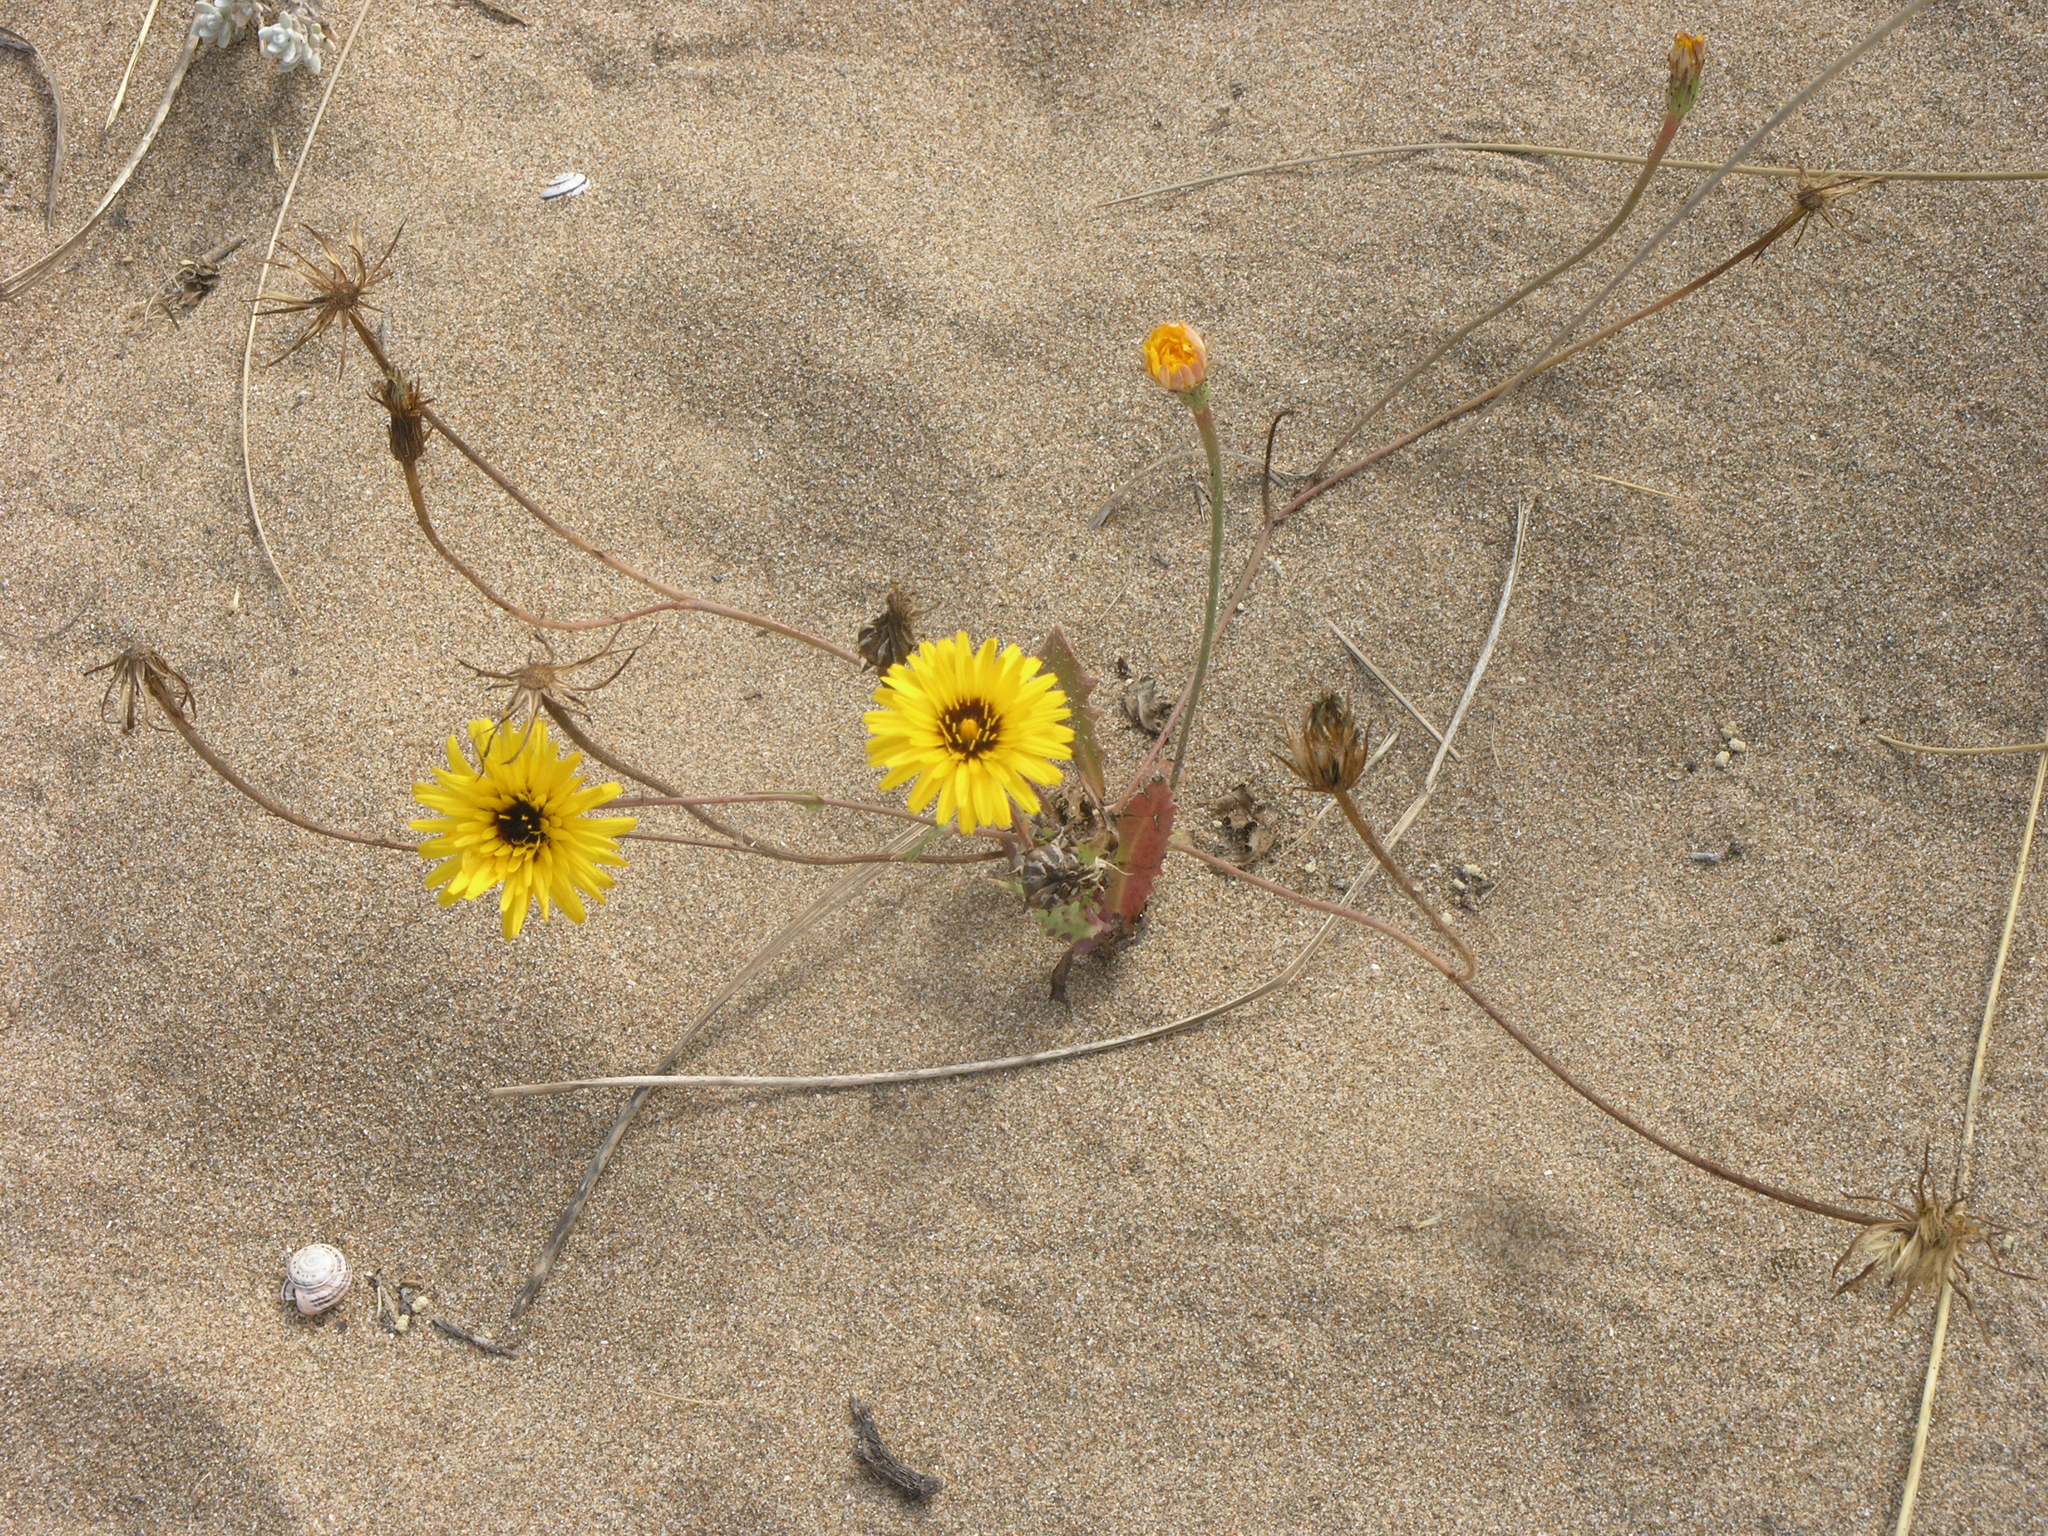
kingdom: Plantae
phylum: Tracheophyta
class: Magnoliopsida
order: Asterales
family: Asteraceae
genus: Reichardia
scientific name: Reichardia tingitana
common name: Reichardia
